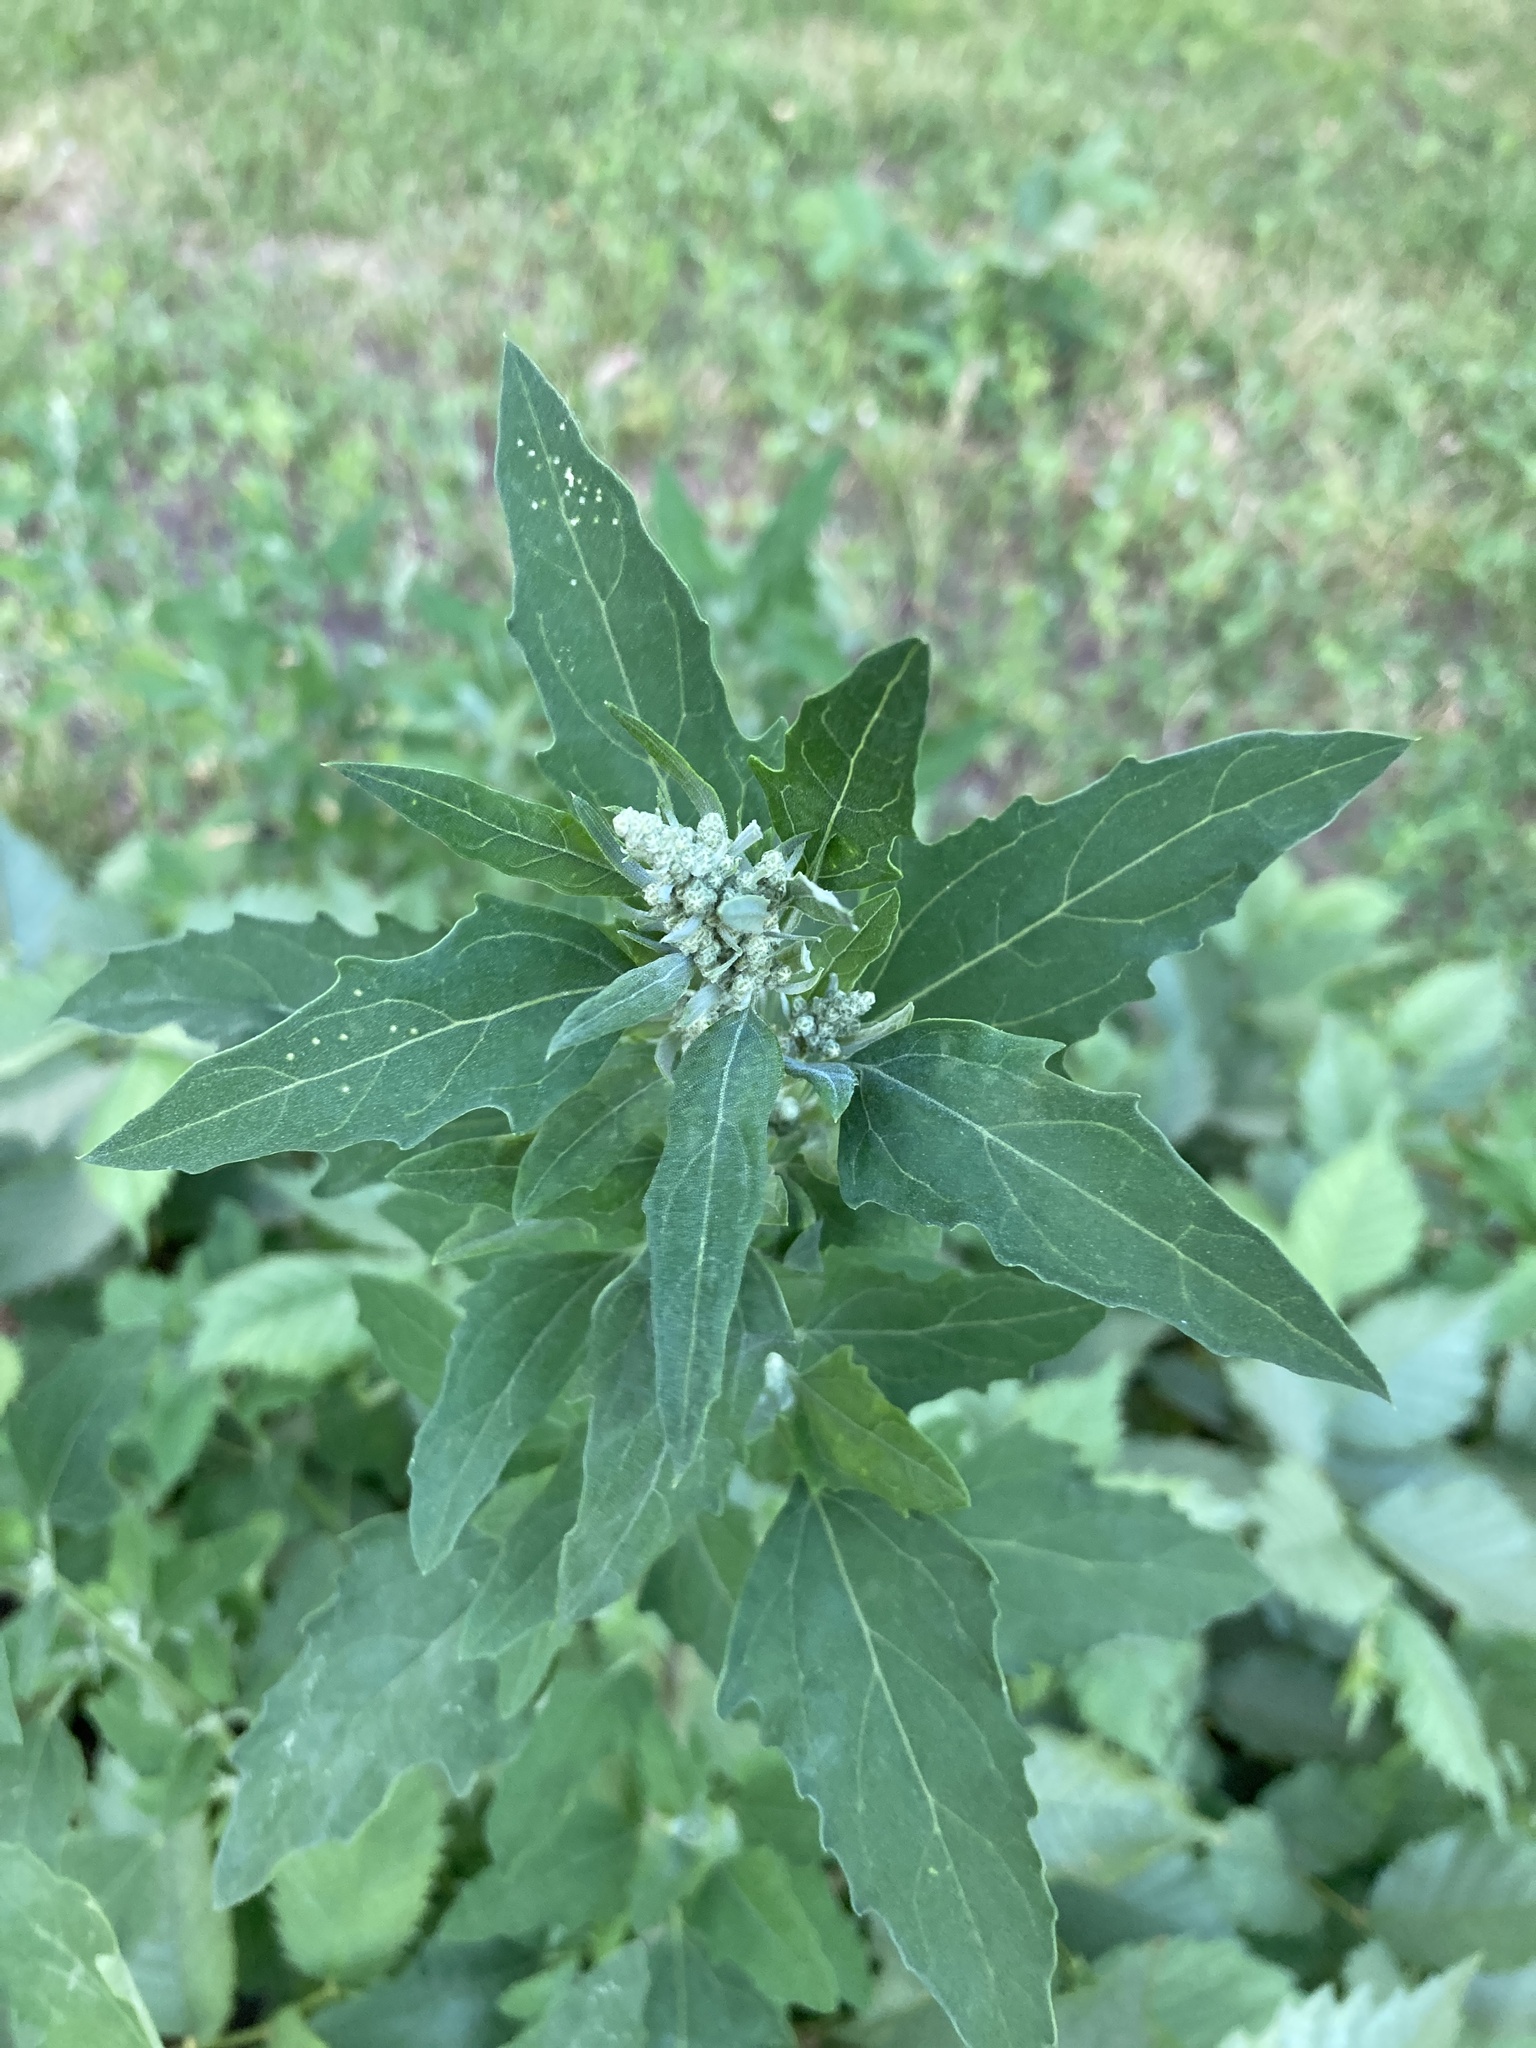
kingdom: Plantae
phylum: Tracheophyta
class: Magnoliopsida
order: Caryophyllales
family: Amaranthaceae
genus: Chenopodium
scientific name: Chenopodium album
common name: Fat-hen
